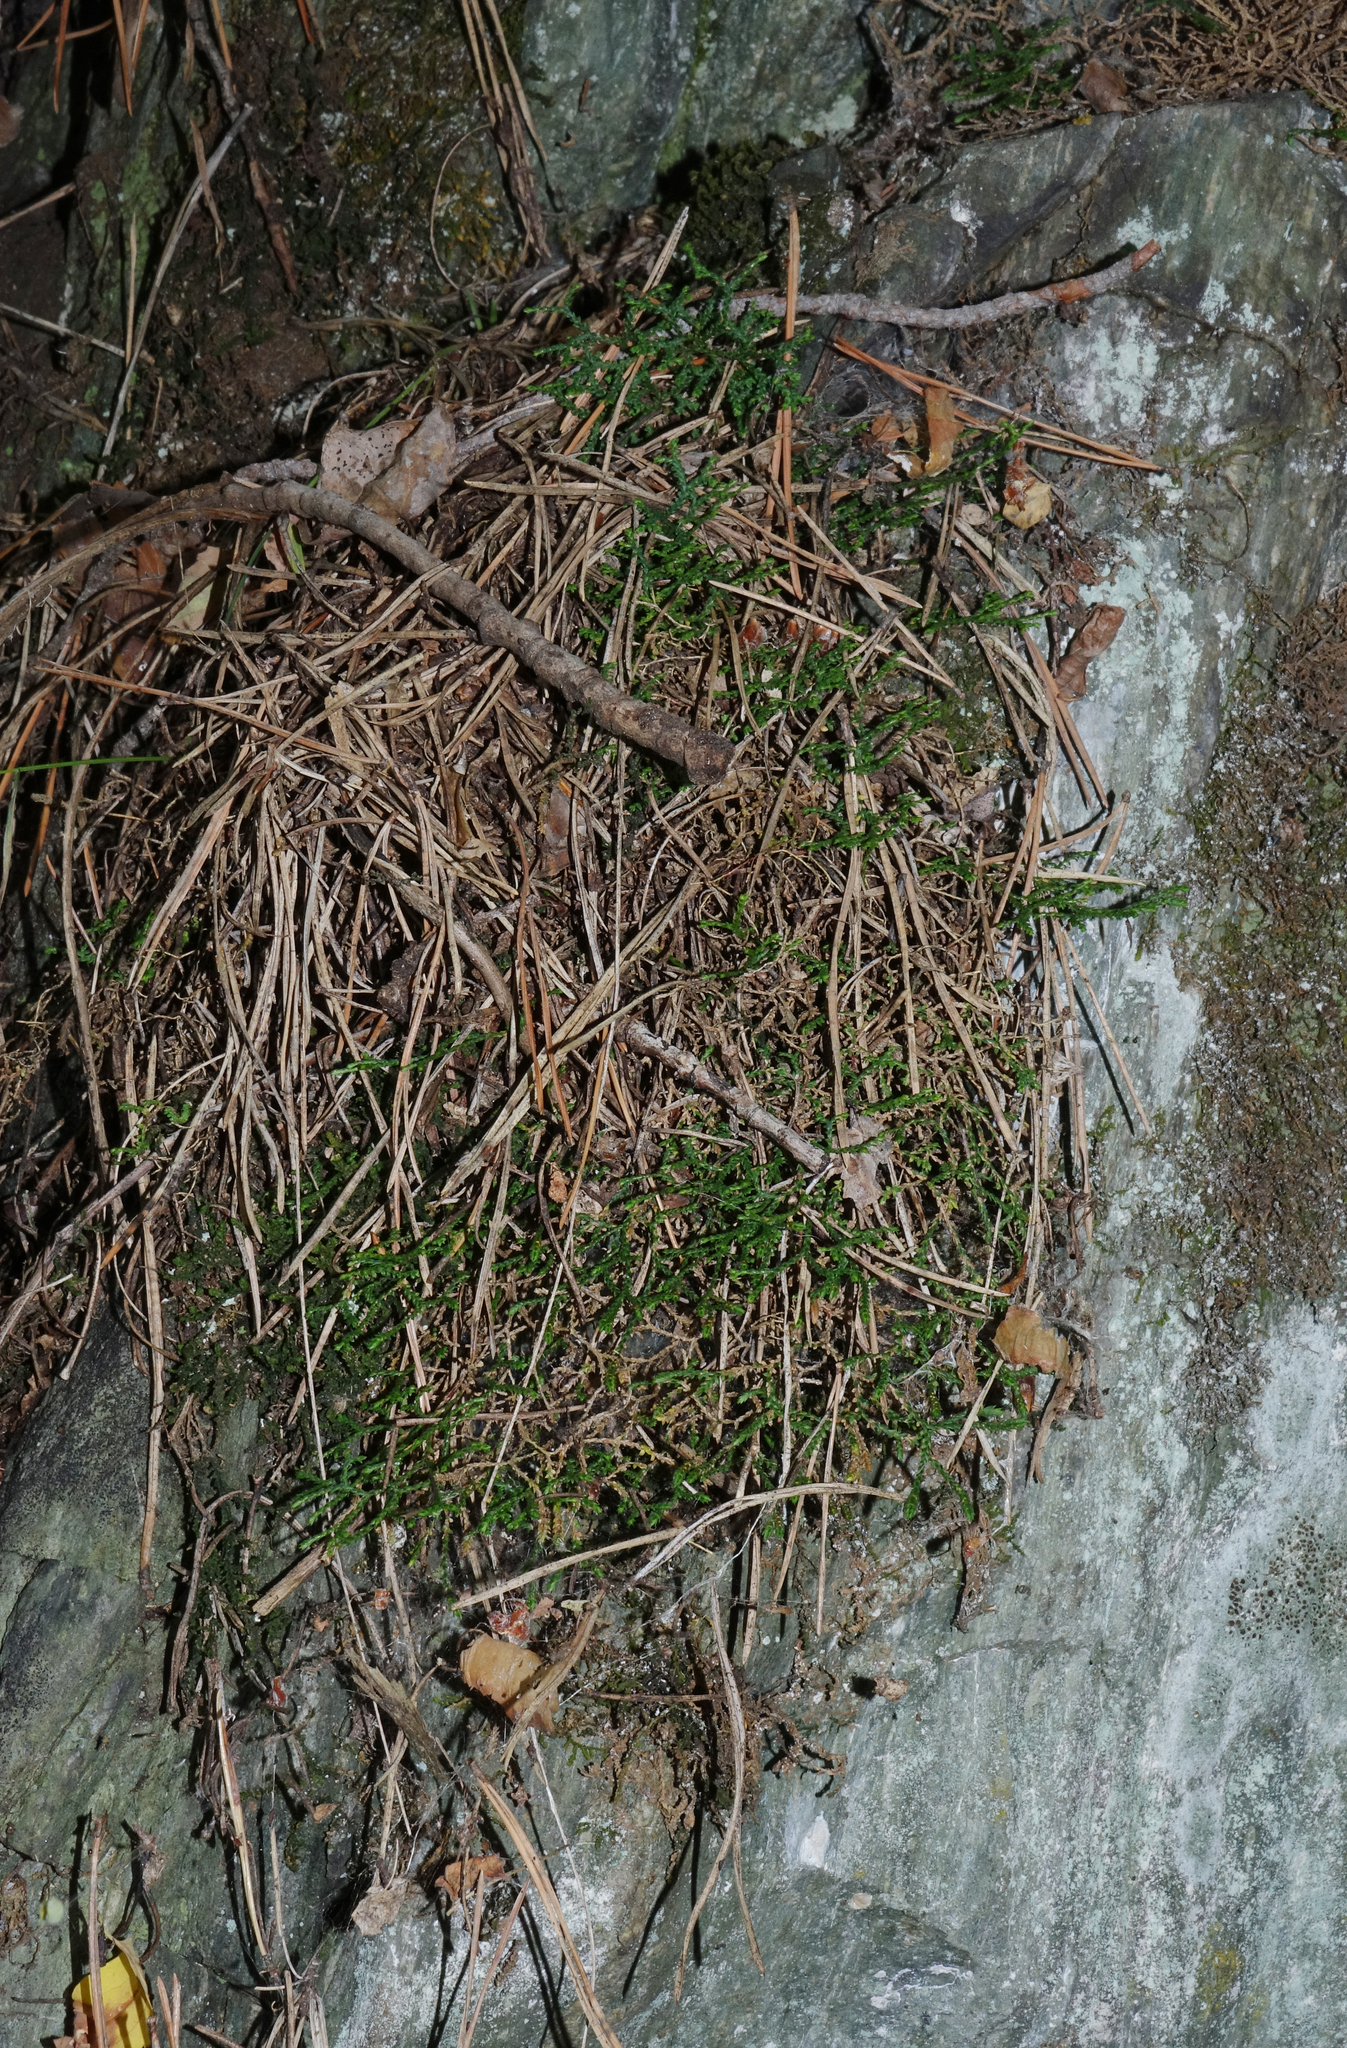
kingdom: Plantae
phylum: Tracheophyta
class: Lycopodiopsida
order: Selaginellales
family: Selaginellaceae
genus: Selaginella
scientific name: Selaginella sanguinolenta
